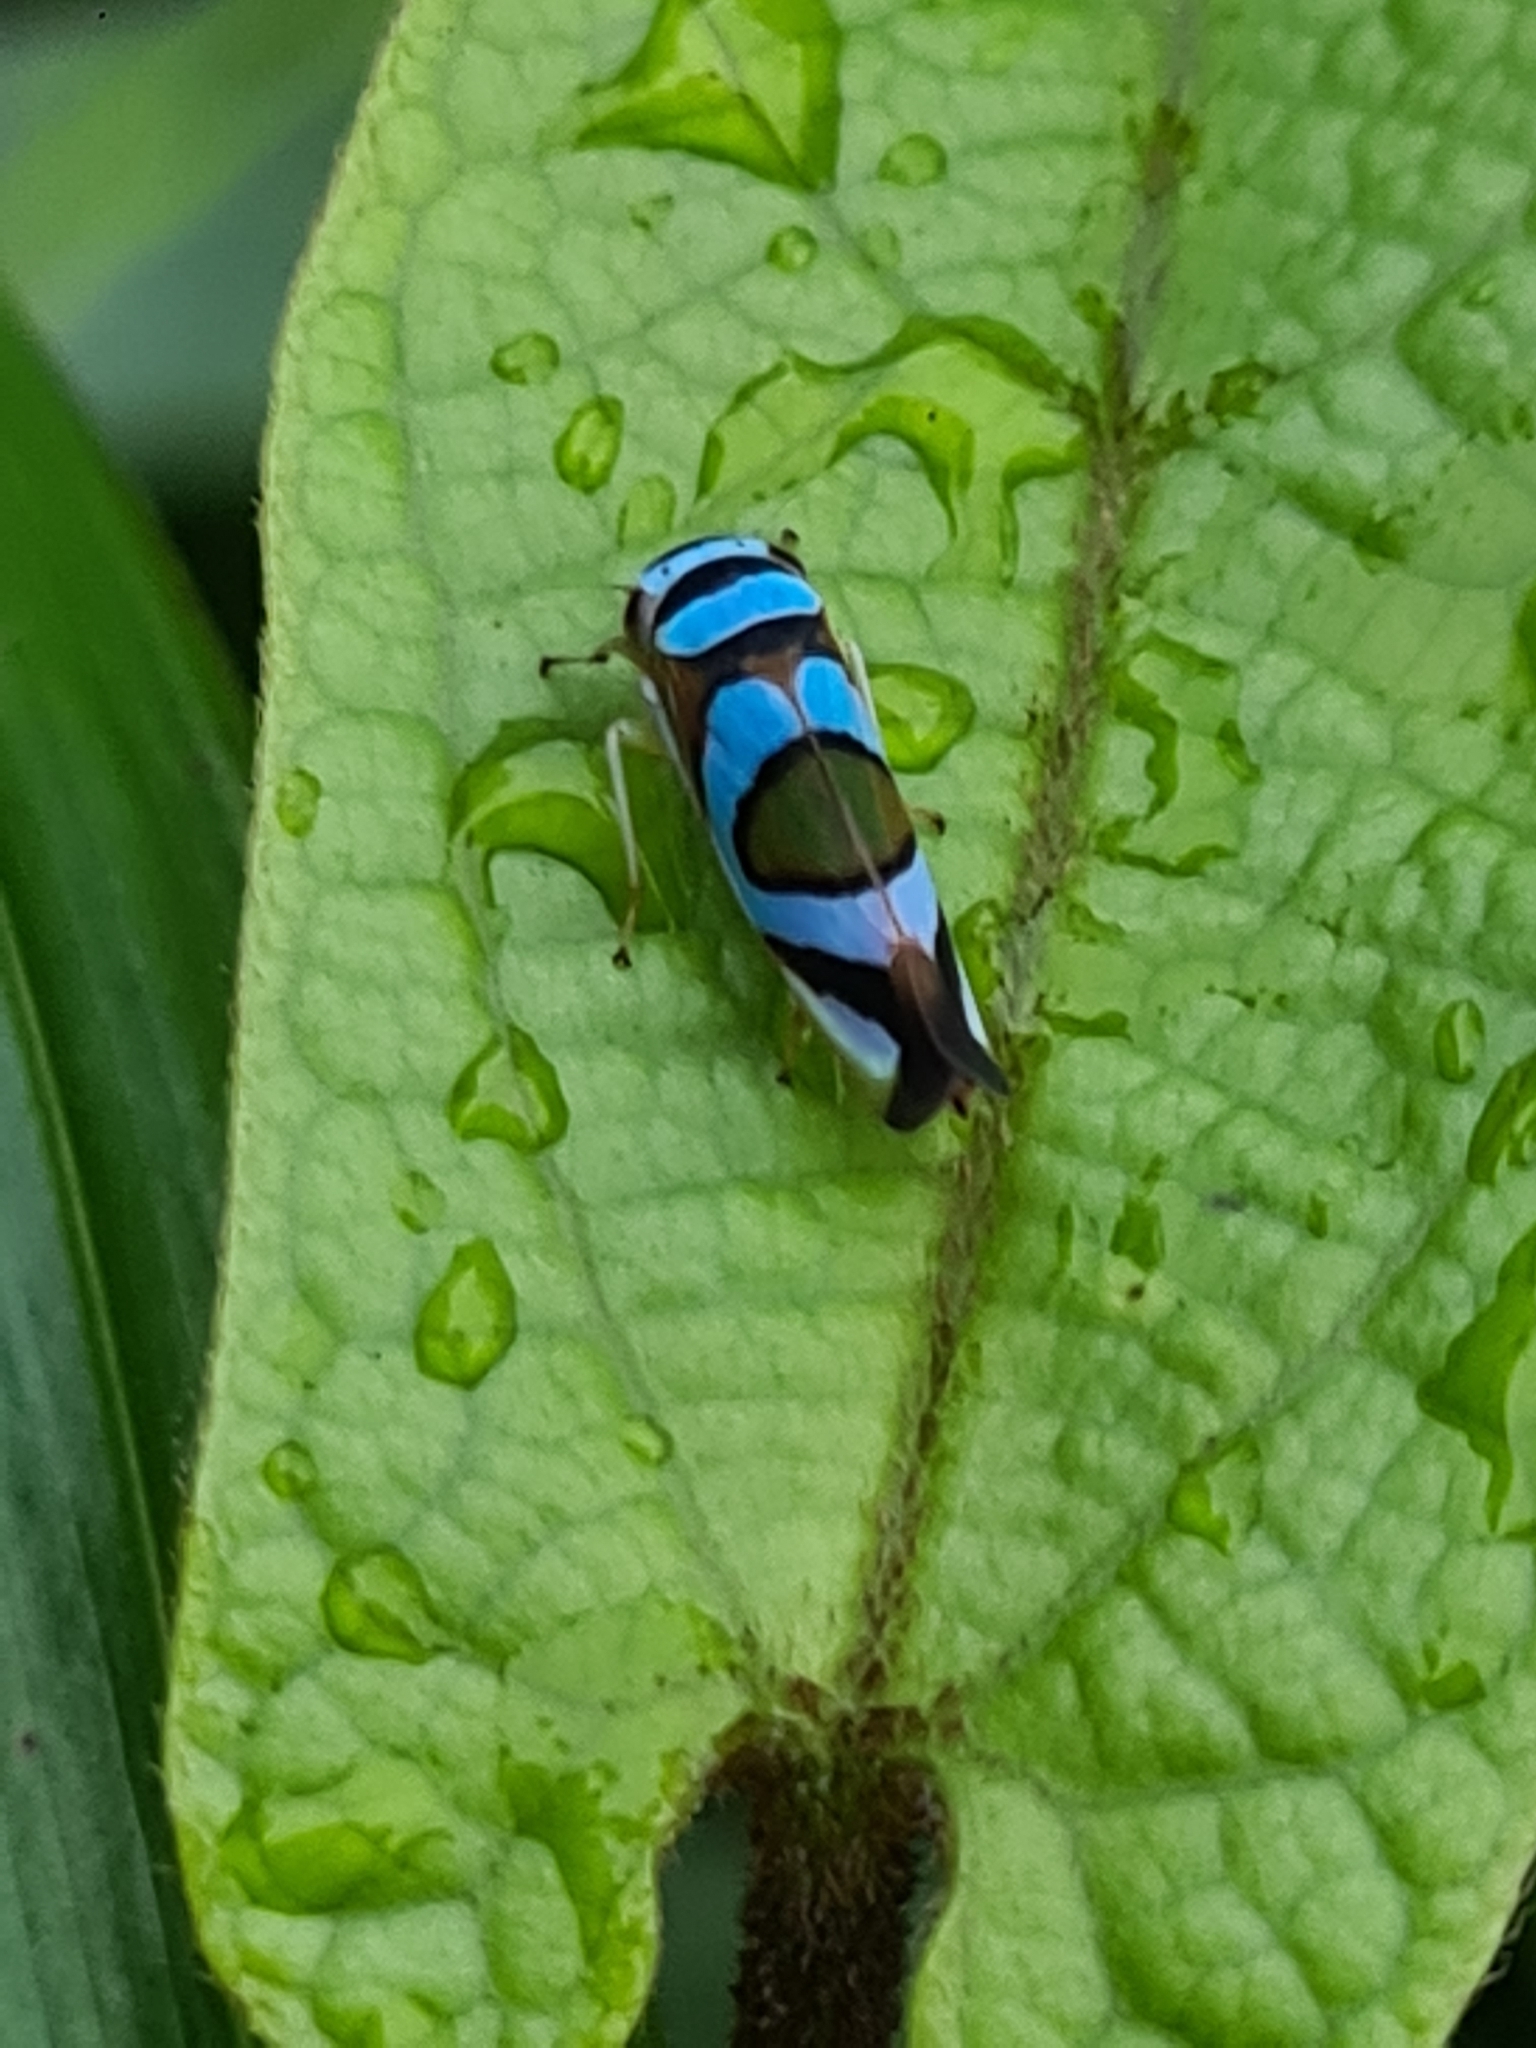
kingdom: Animalia
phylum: Arthropoda
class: Insecta
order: Hemiptera
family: Cicadellidae
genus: Macugonalia
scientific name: Macugonalia moesta
